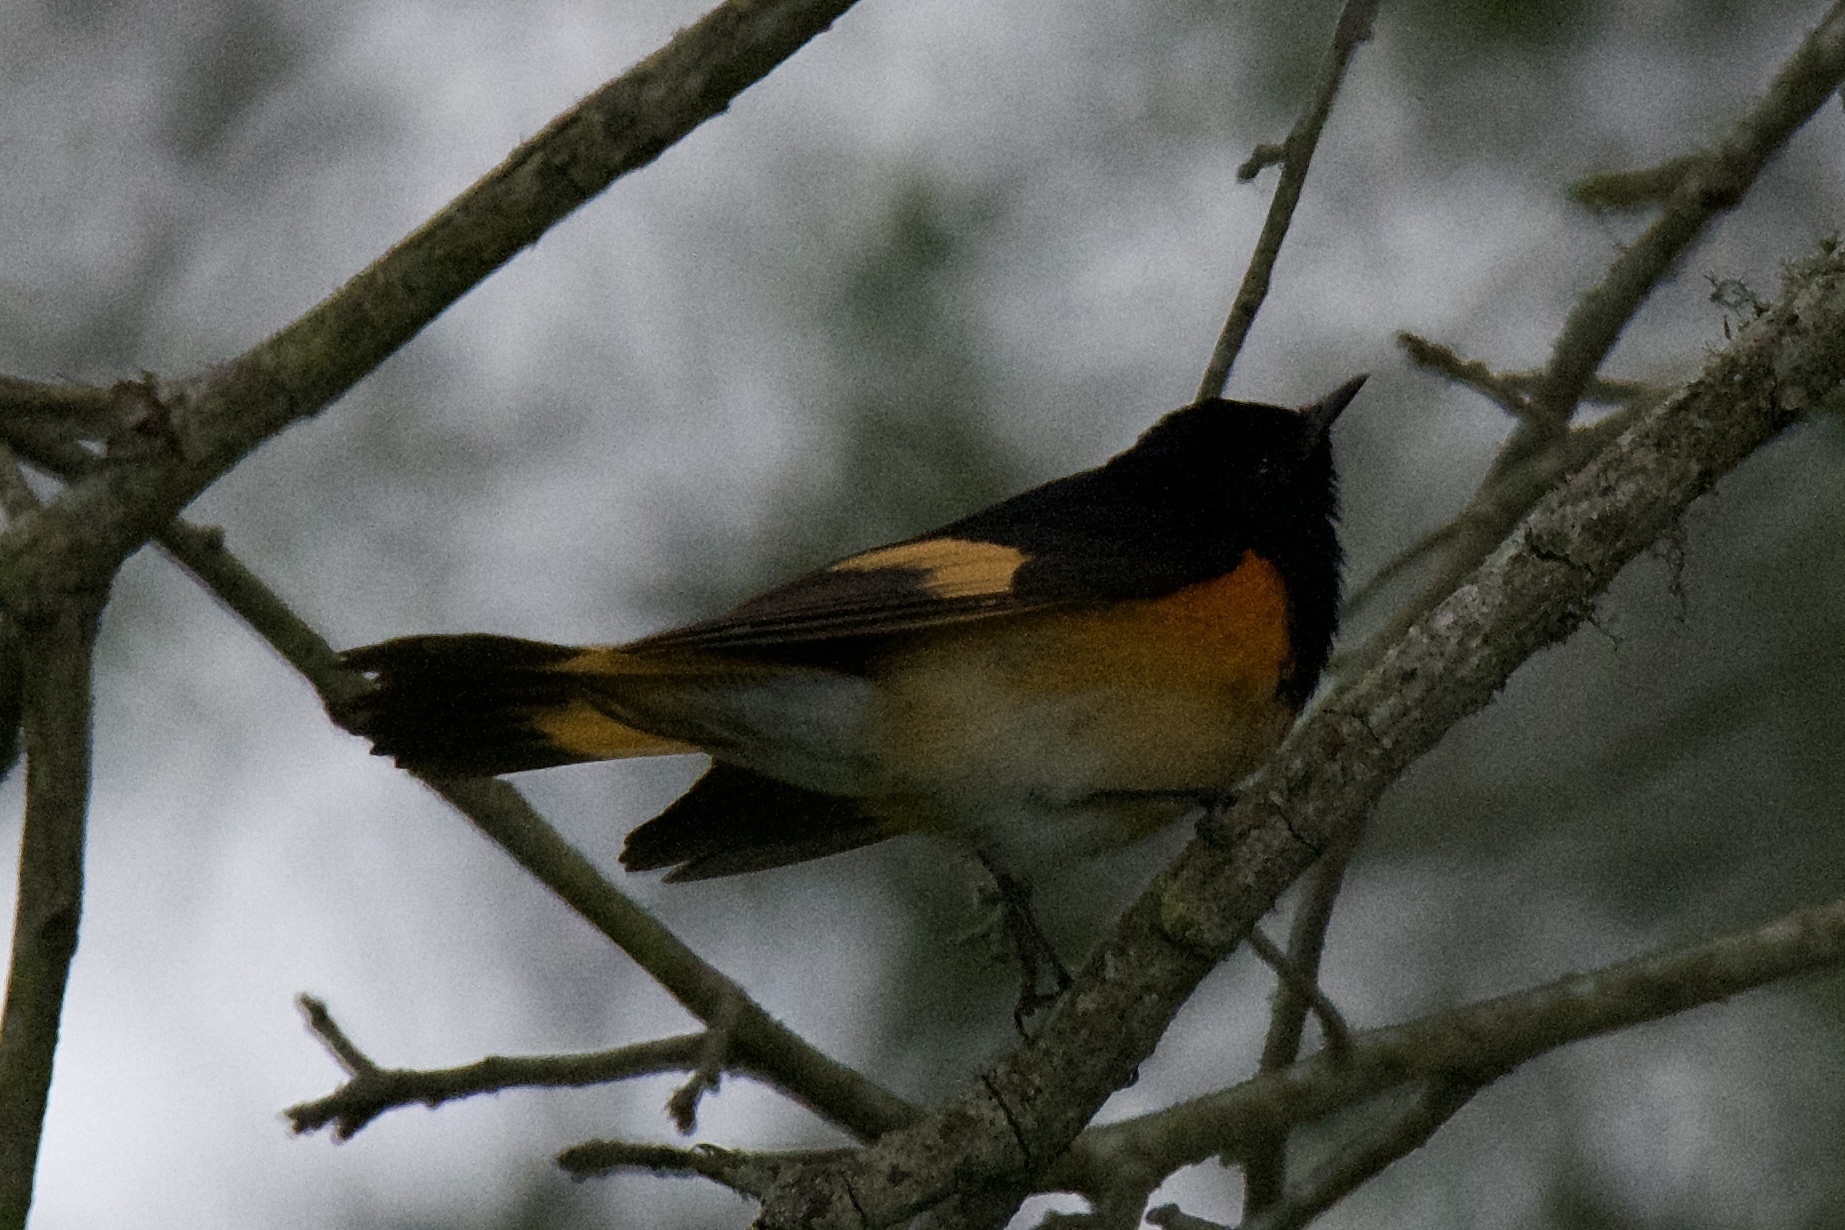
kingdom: Animalia
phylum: Chordata
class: Aves
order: Passeriformes
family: Parulidae
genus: Setophaga
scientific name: Setophaga ruticilla
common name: American redstart
